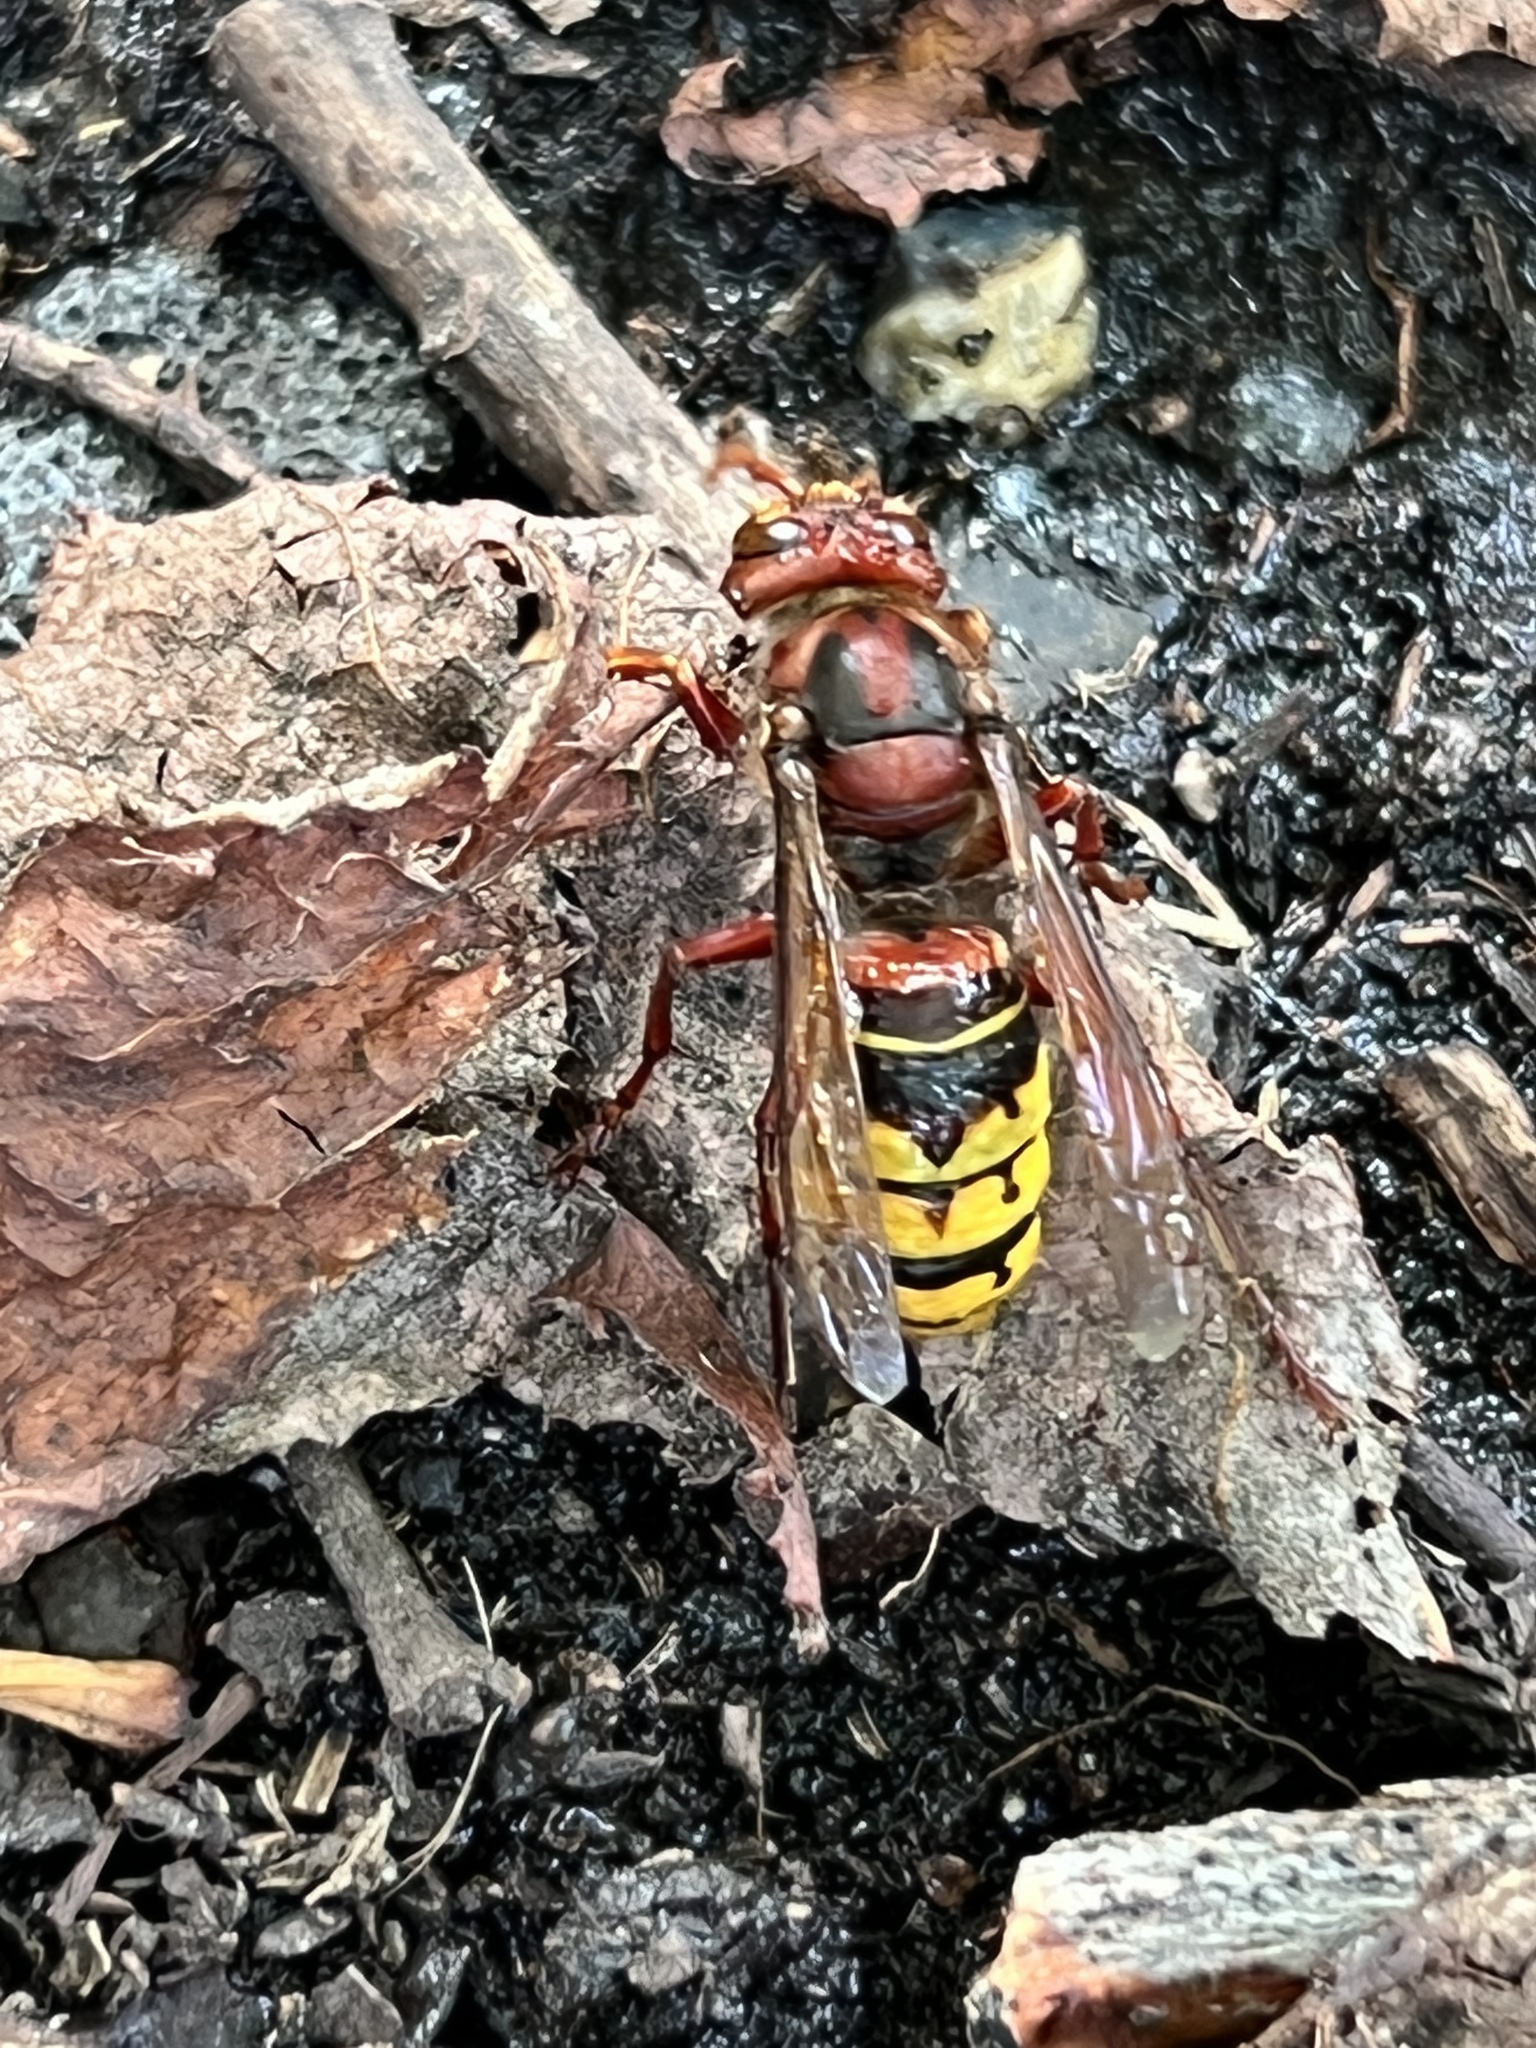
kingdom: Animalia
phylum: Arthropoda
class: Insecta
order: Hymenoptera
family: Vespidae
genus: Vespa
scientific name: Vespa crabro
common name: Hornet
